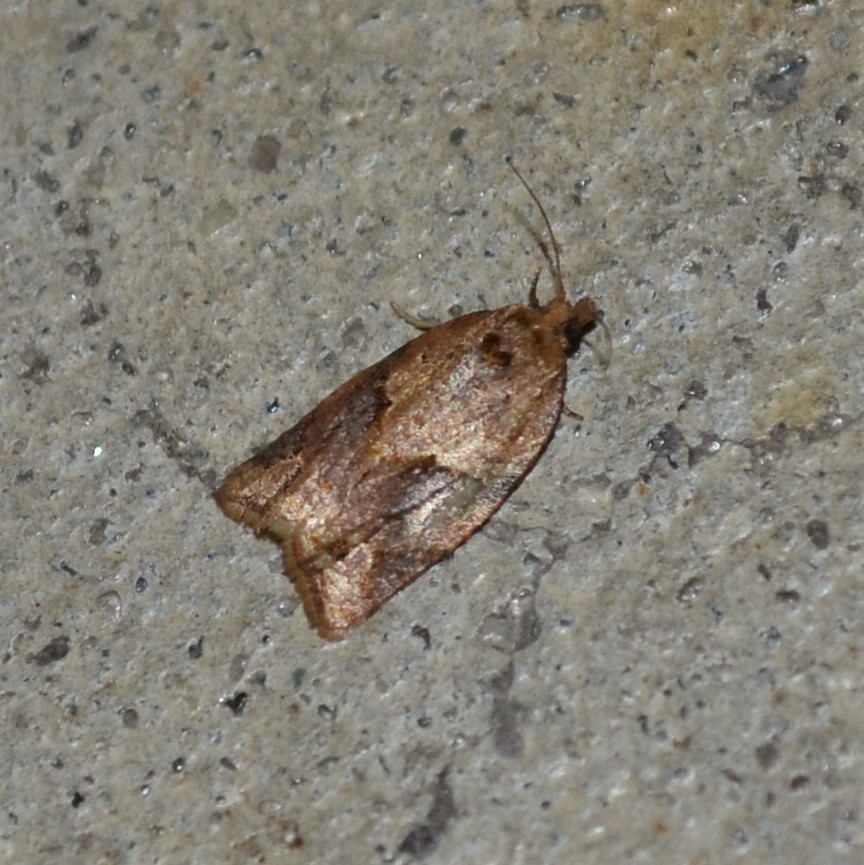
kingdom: Animalia
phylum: Arthropoda
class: Insecta
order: Lepidoptera
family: Tortricidae
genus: Argyrotaenia
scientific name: Argyrotaenia ivana
